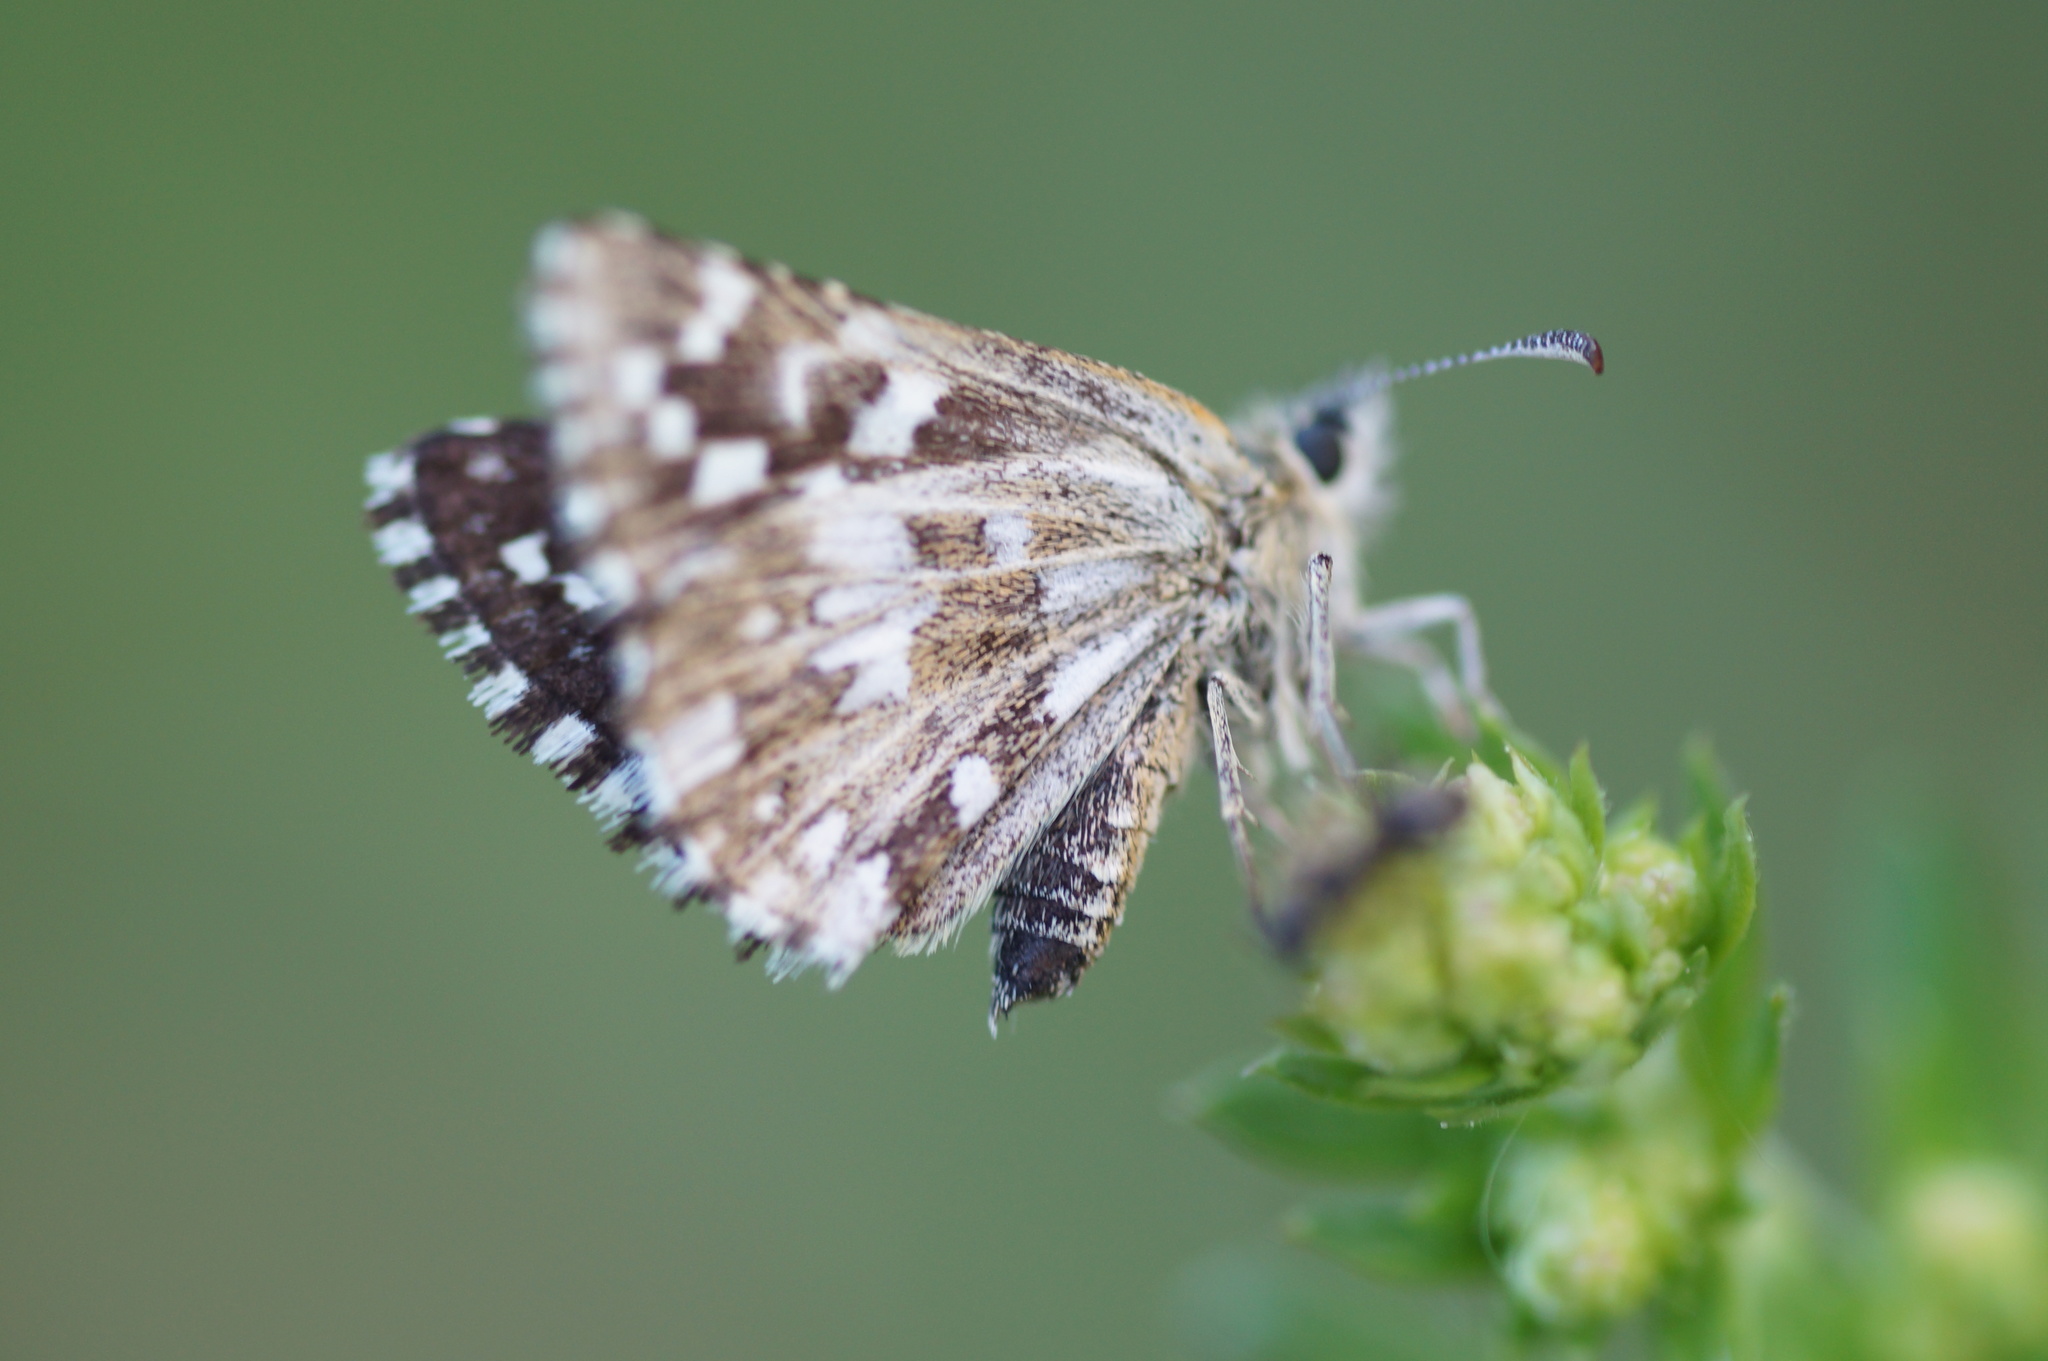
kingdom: Animalia
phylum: Arthropoda
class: Insecta
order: Lepidoptera
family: Hesperiidae
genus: Pyrgus
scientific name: Pyrgus malvae
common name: Grizzled skipper
